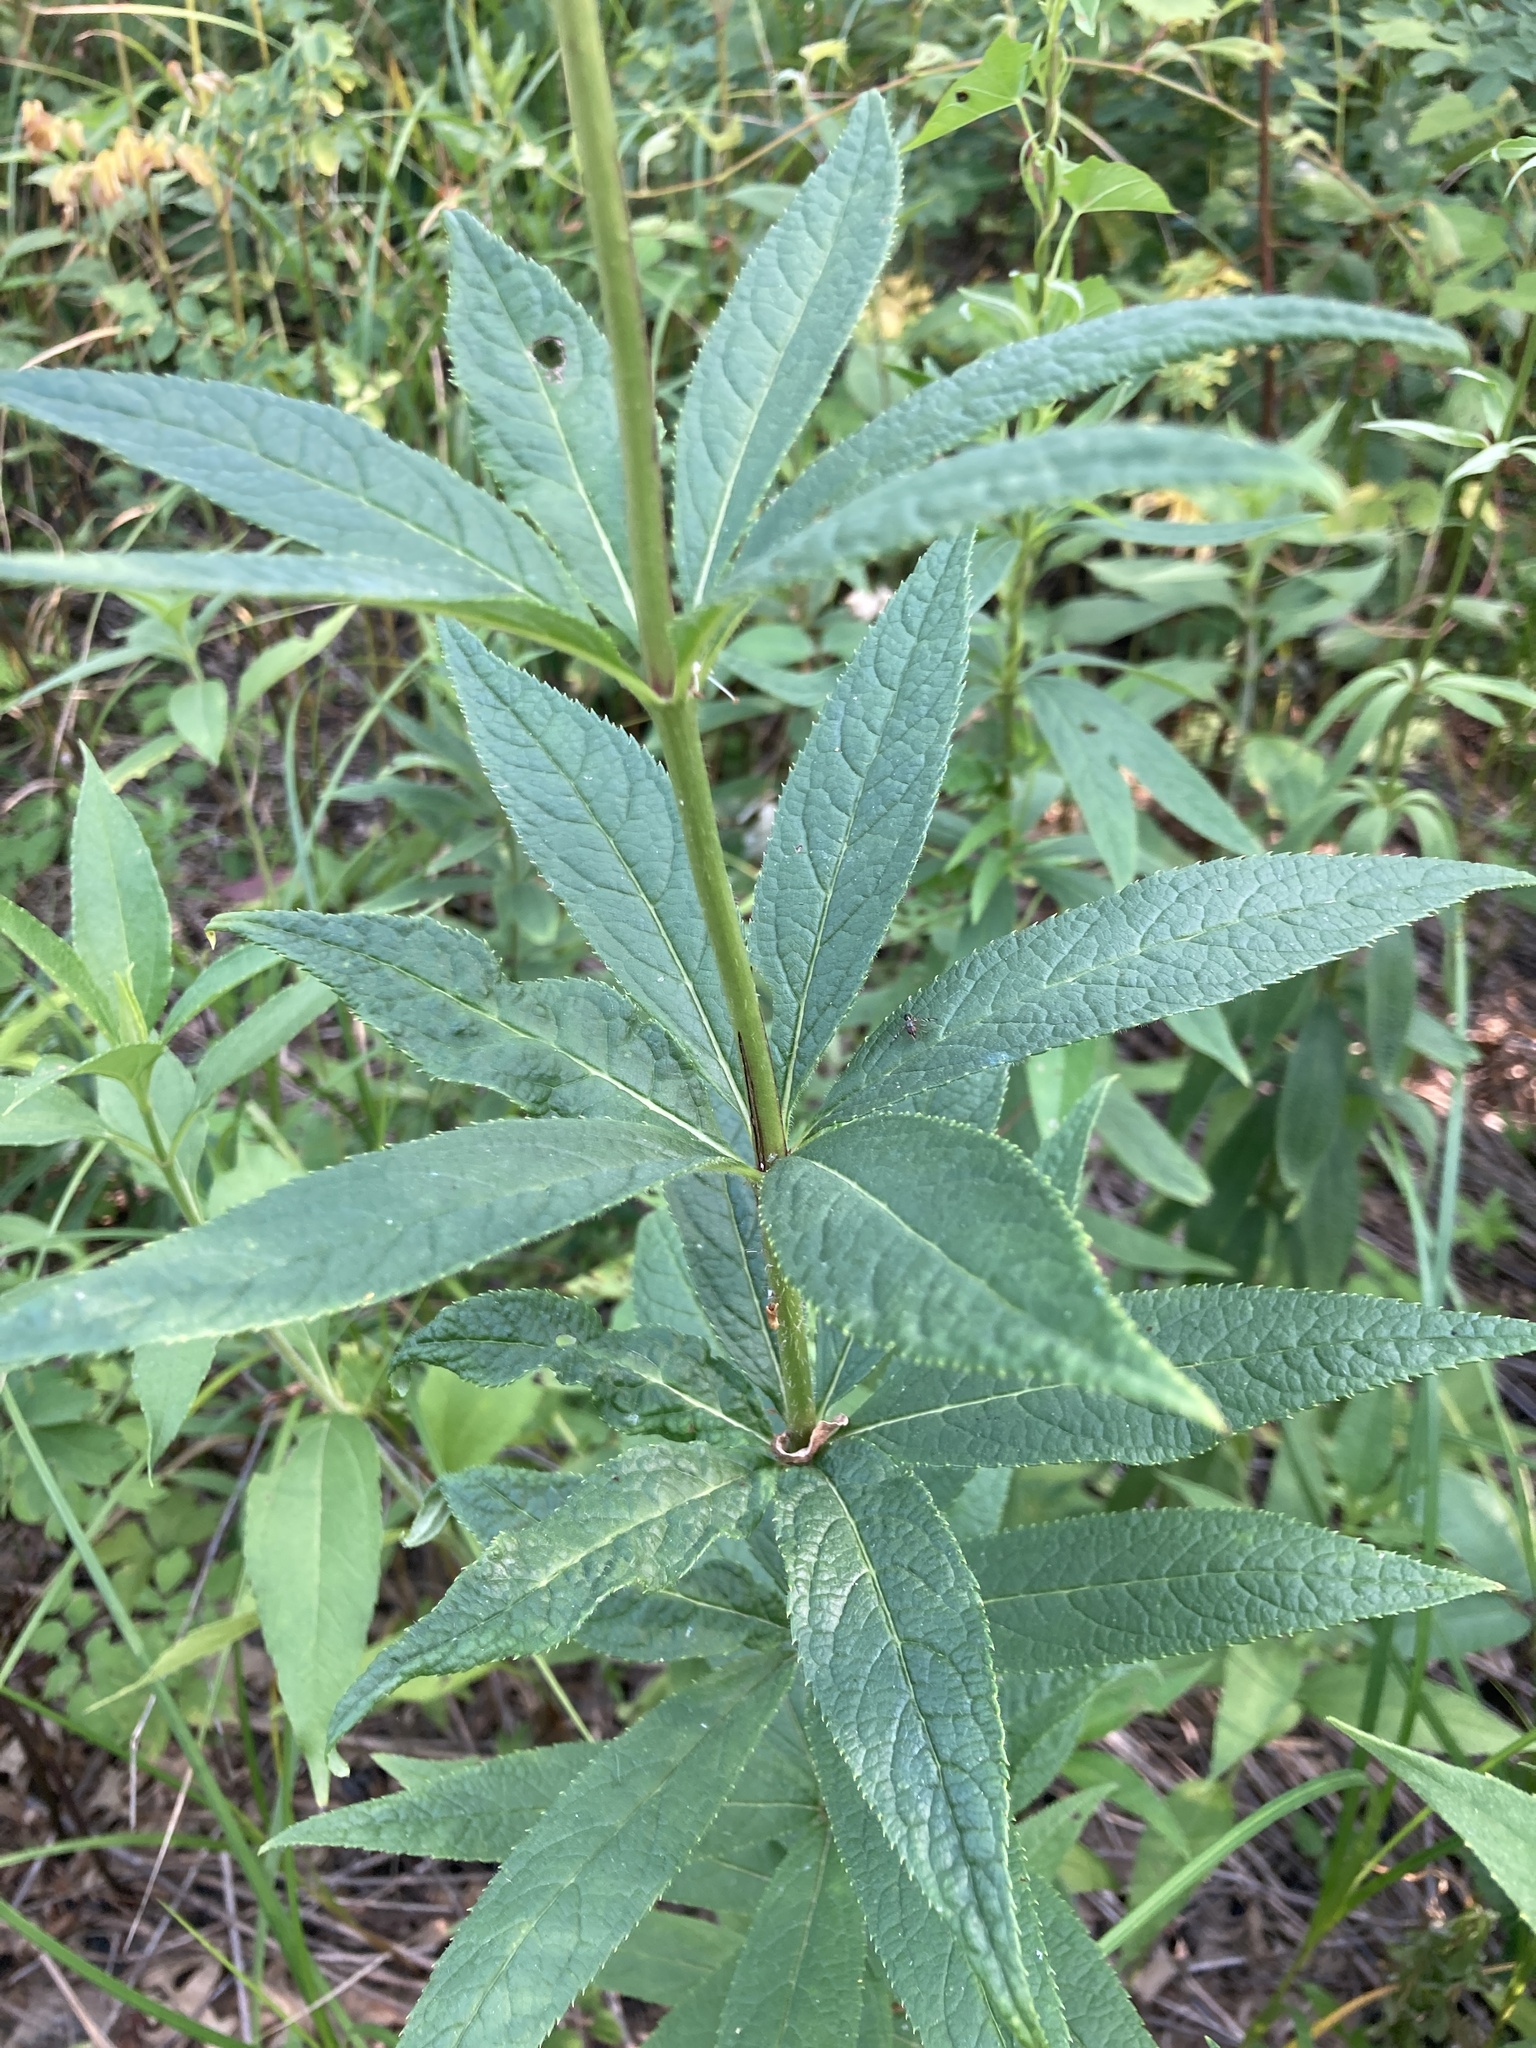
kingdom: Plantae
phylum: Tracheophyta
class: Magnoliopsida
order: Lamiales
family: Plantaginaceae
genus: Veronicastrum
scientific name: Veronicastrum virginicum
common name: Blackroot
